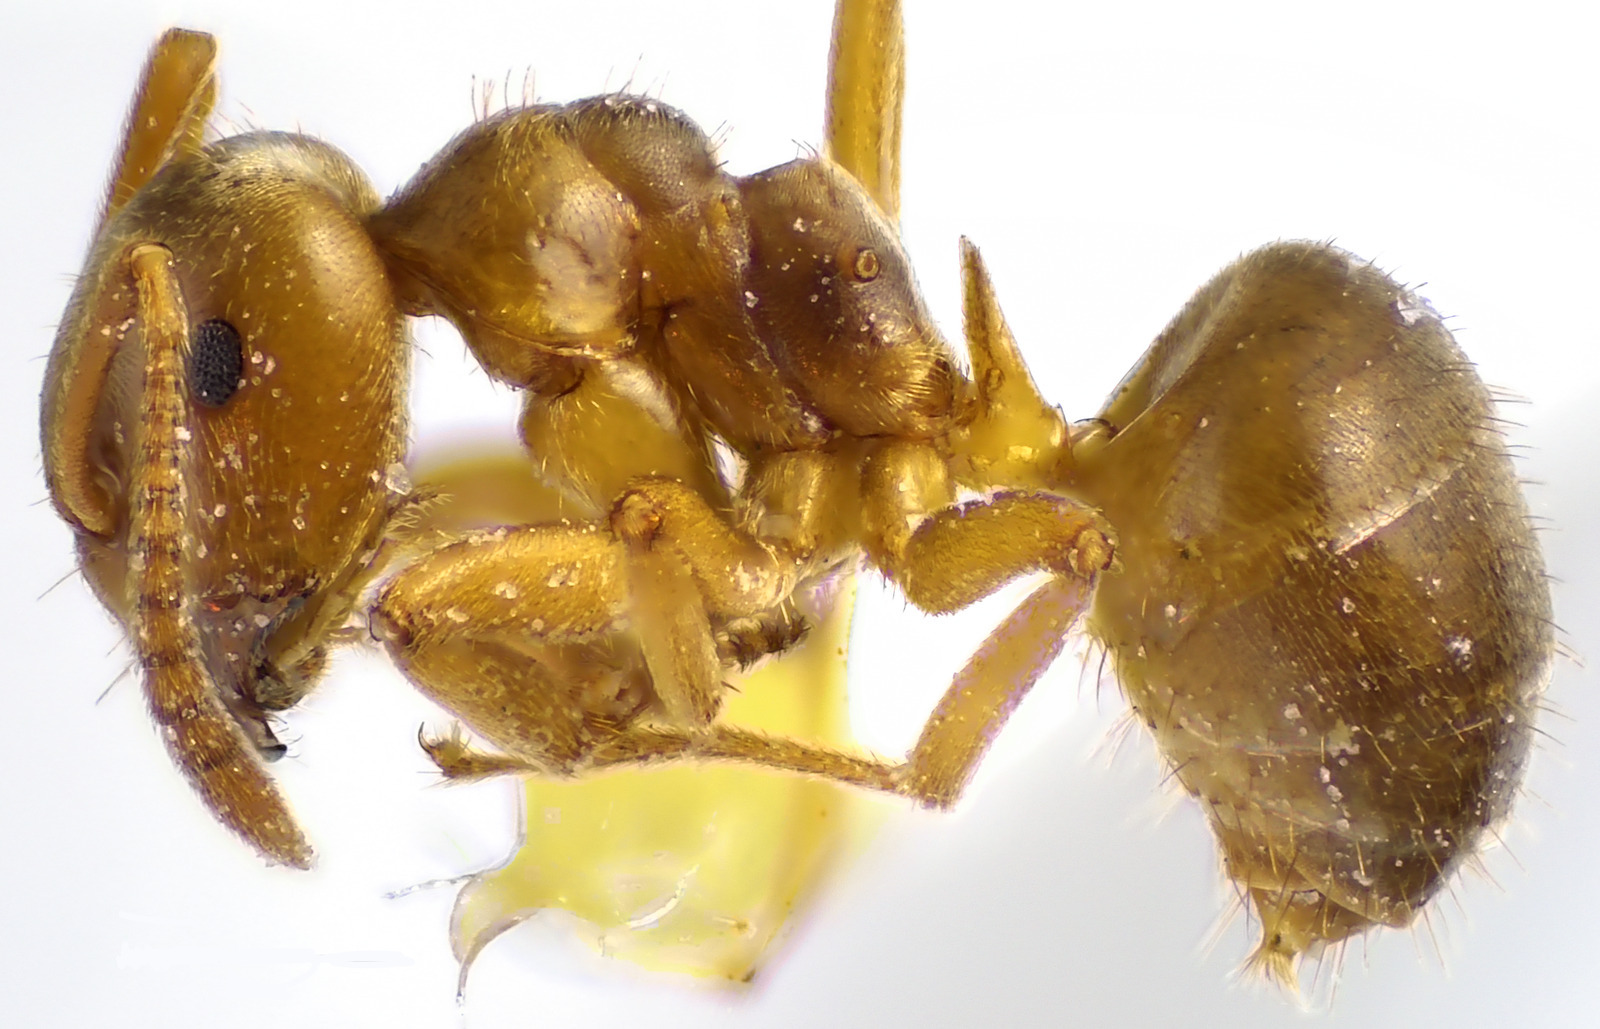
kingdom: Animalia
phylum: Arthropoda
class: Insecta
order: Hymenoptera
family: Formicidae
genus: Lasius
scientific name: Lasius aphidicola
